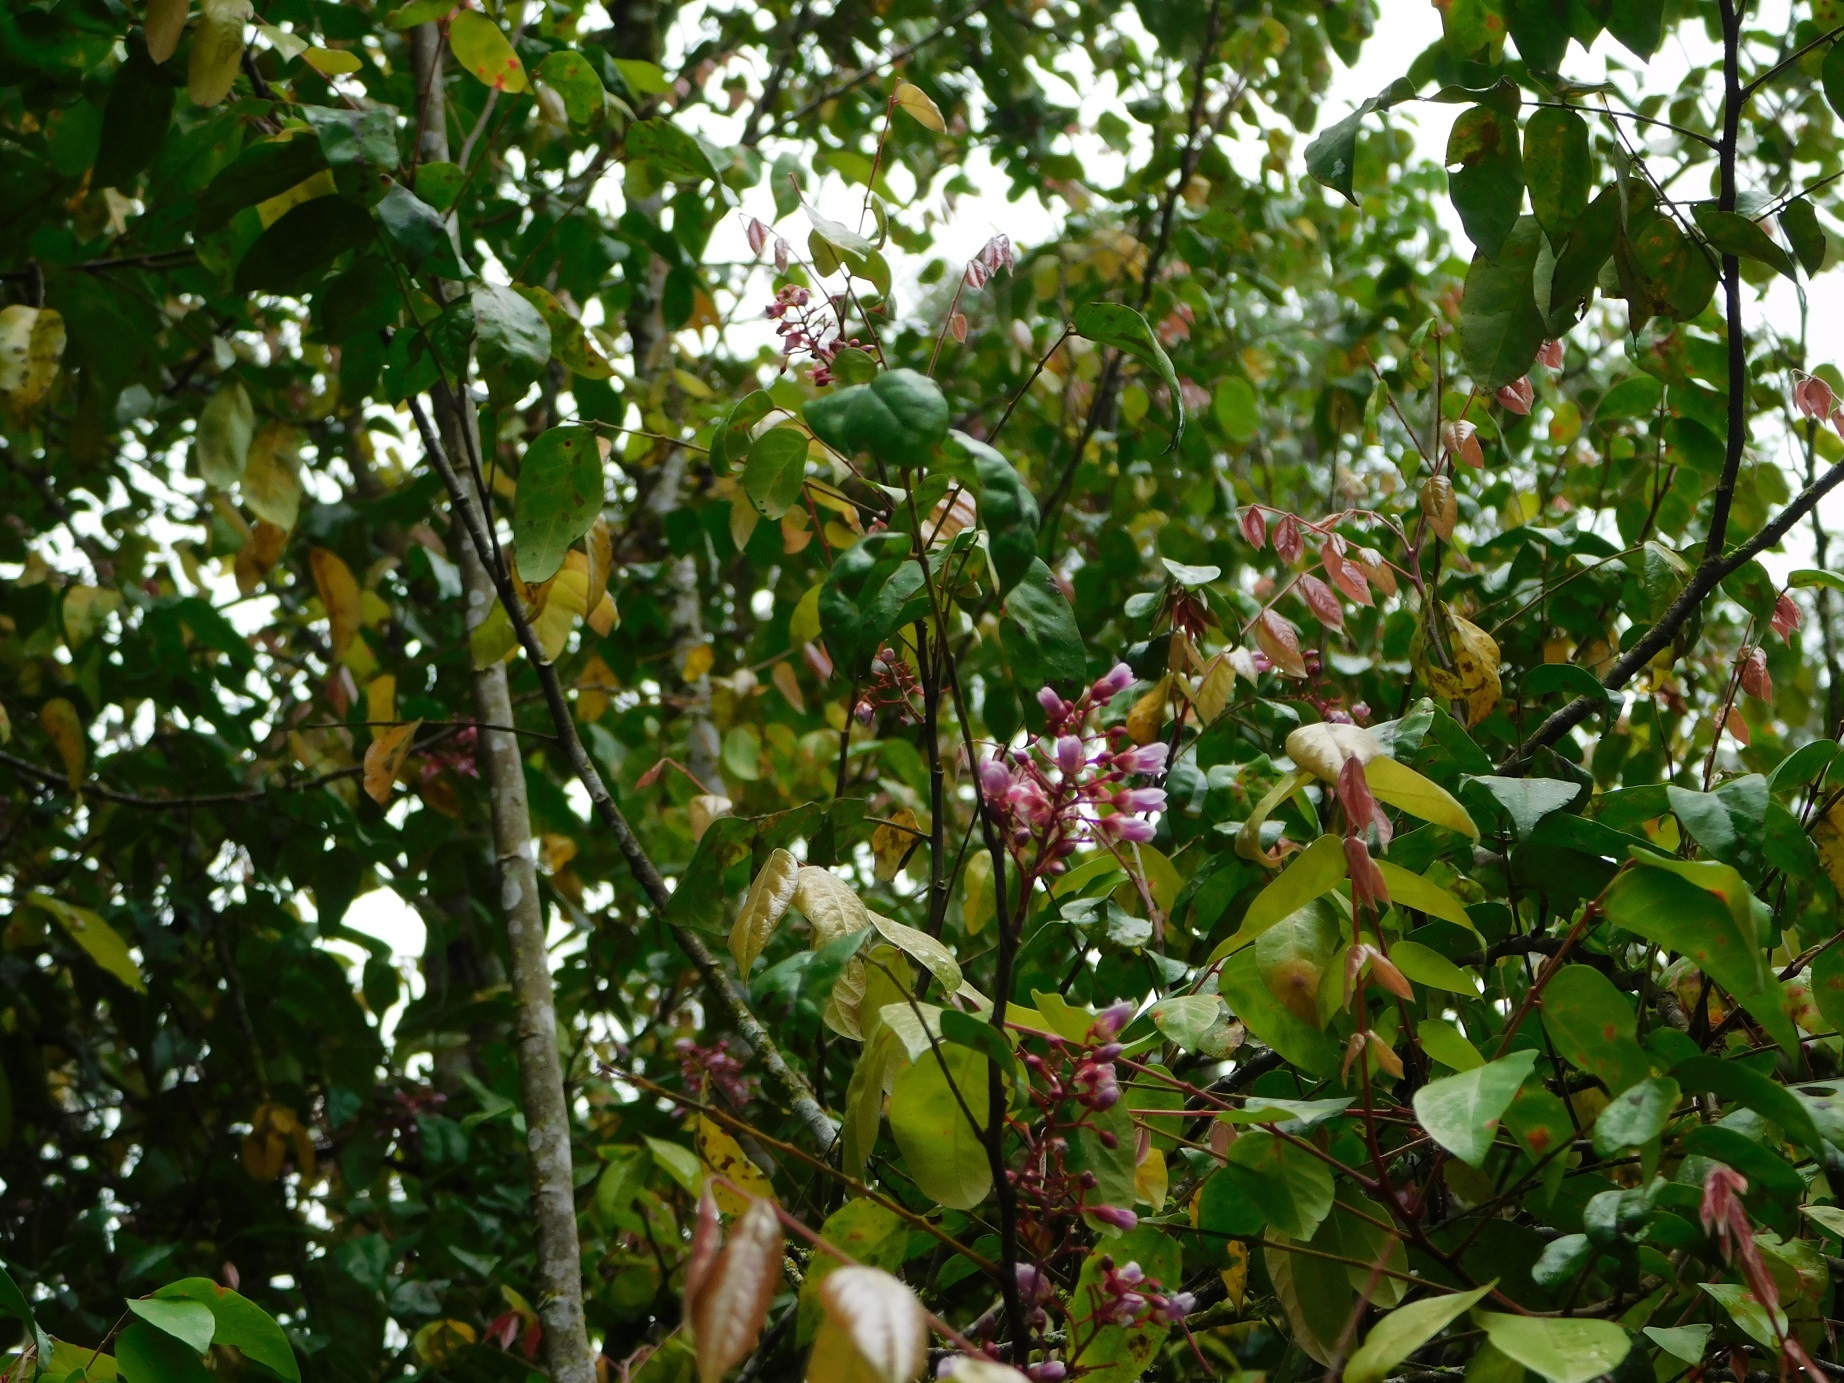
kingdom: Plantae
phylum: Tracheophyta
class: Magnoliopsida
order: Oxalidales
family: Oxalidaceae
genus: Averrhoa
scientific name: Averrhoa carambola
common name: Blimbing
